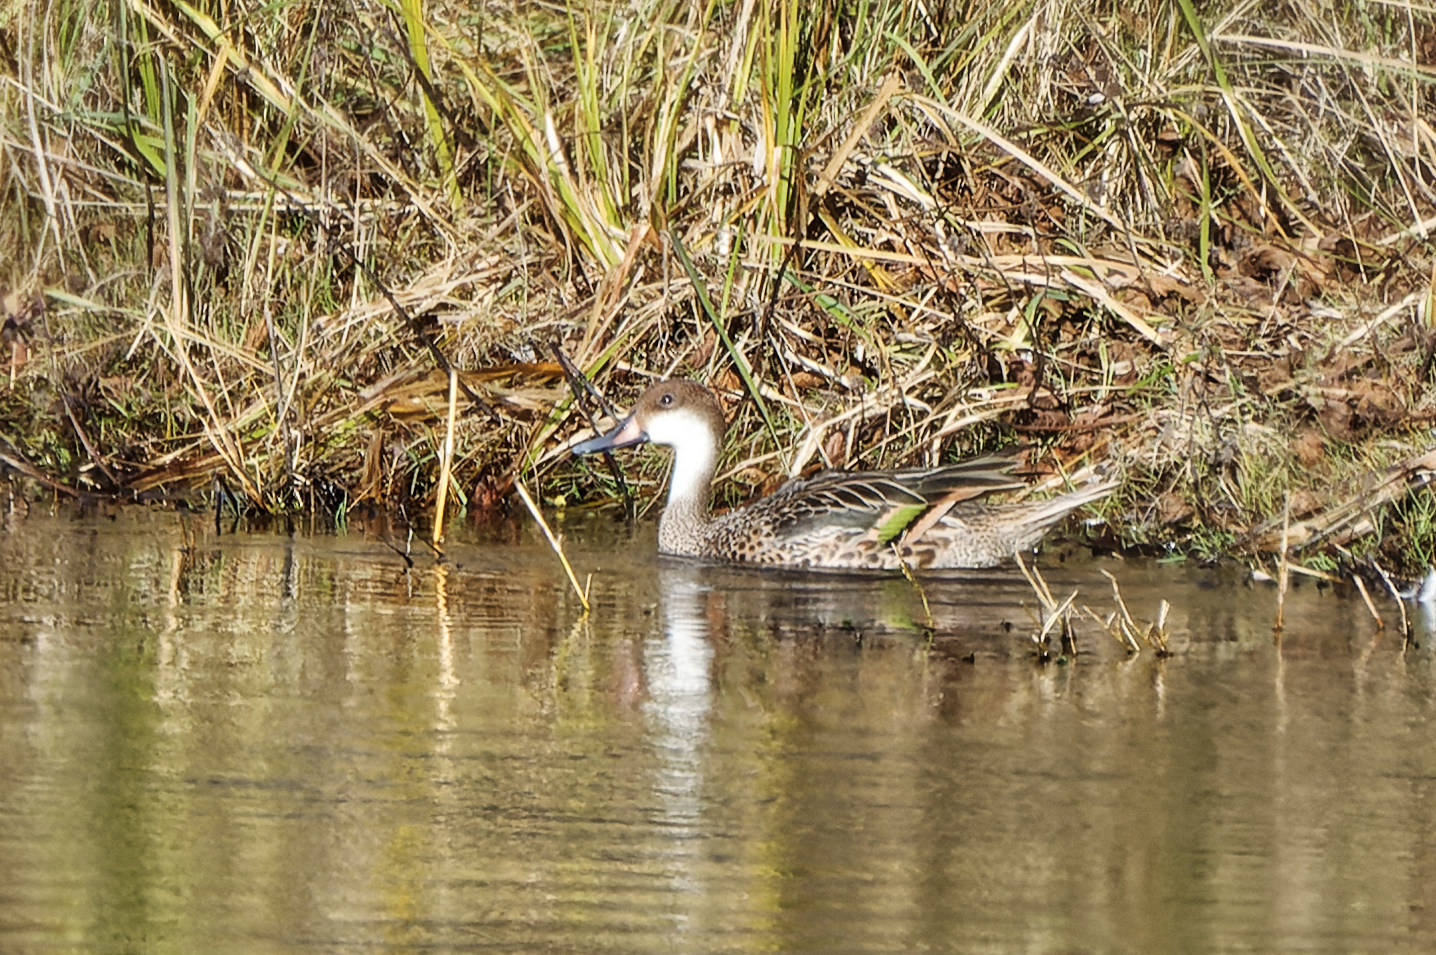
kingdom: Animalia
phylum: Chordata
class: Aves
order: Anseriformes
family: Anatidae
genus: Anas
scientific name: Anas bahamensis
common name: White-cheeked pintail
